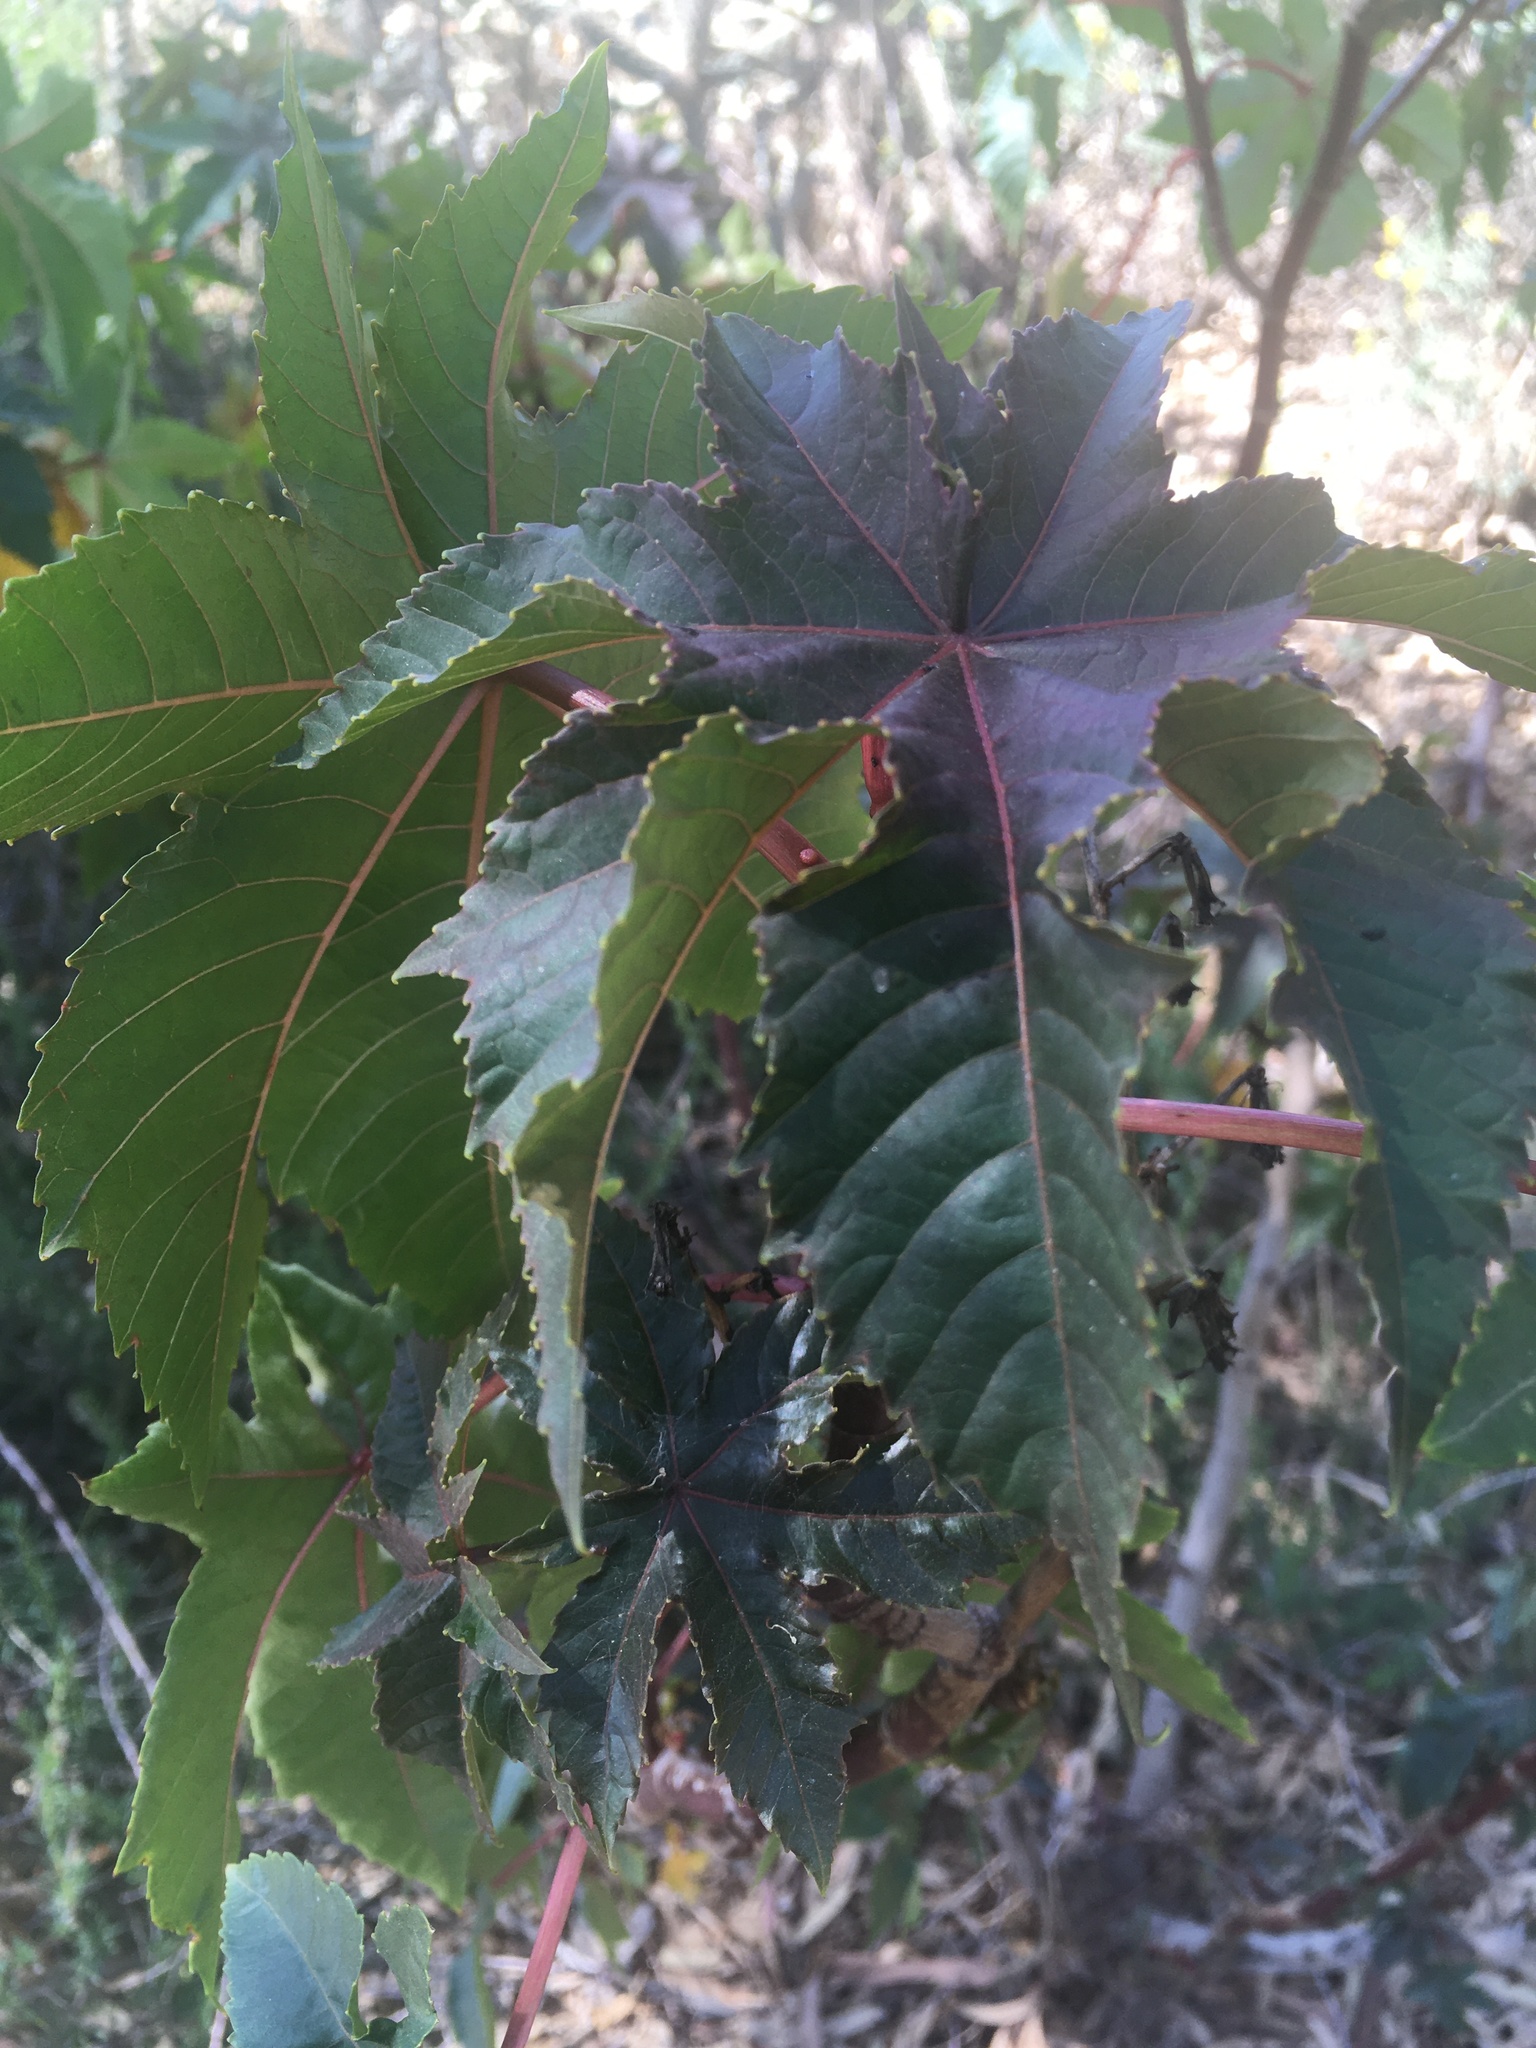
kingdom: Plantae
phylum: Tracheophyta
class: Magnoliopsida
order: Malpighiales
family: Euphorbiaceae
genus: Ricinus
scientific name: Ricinus communis
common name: Castor-oil-plant
